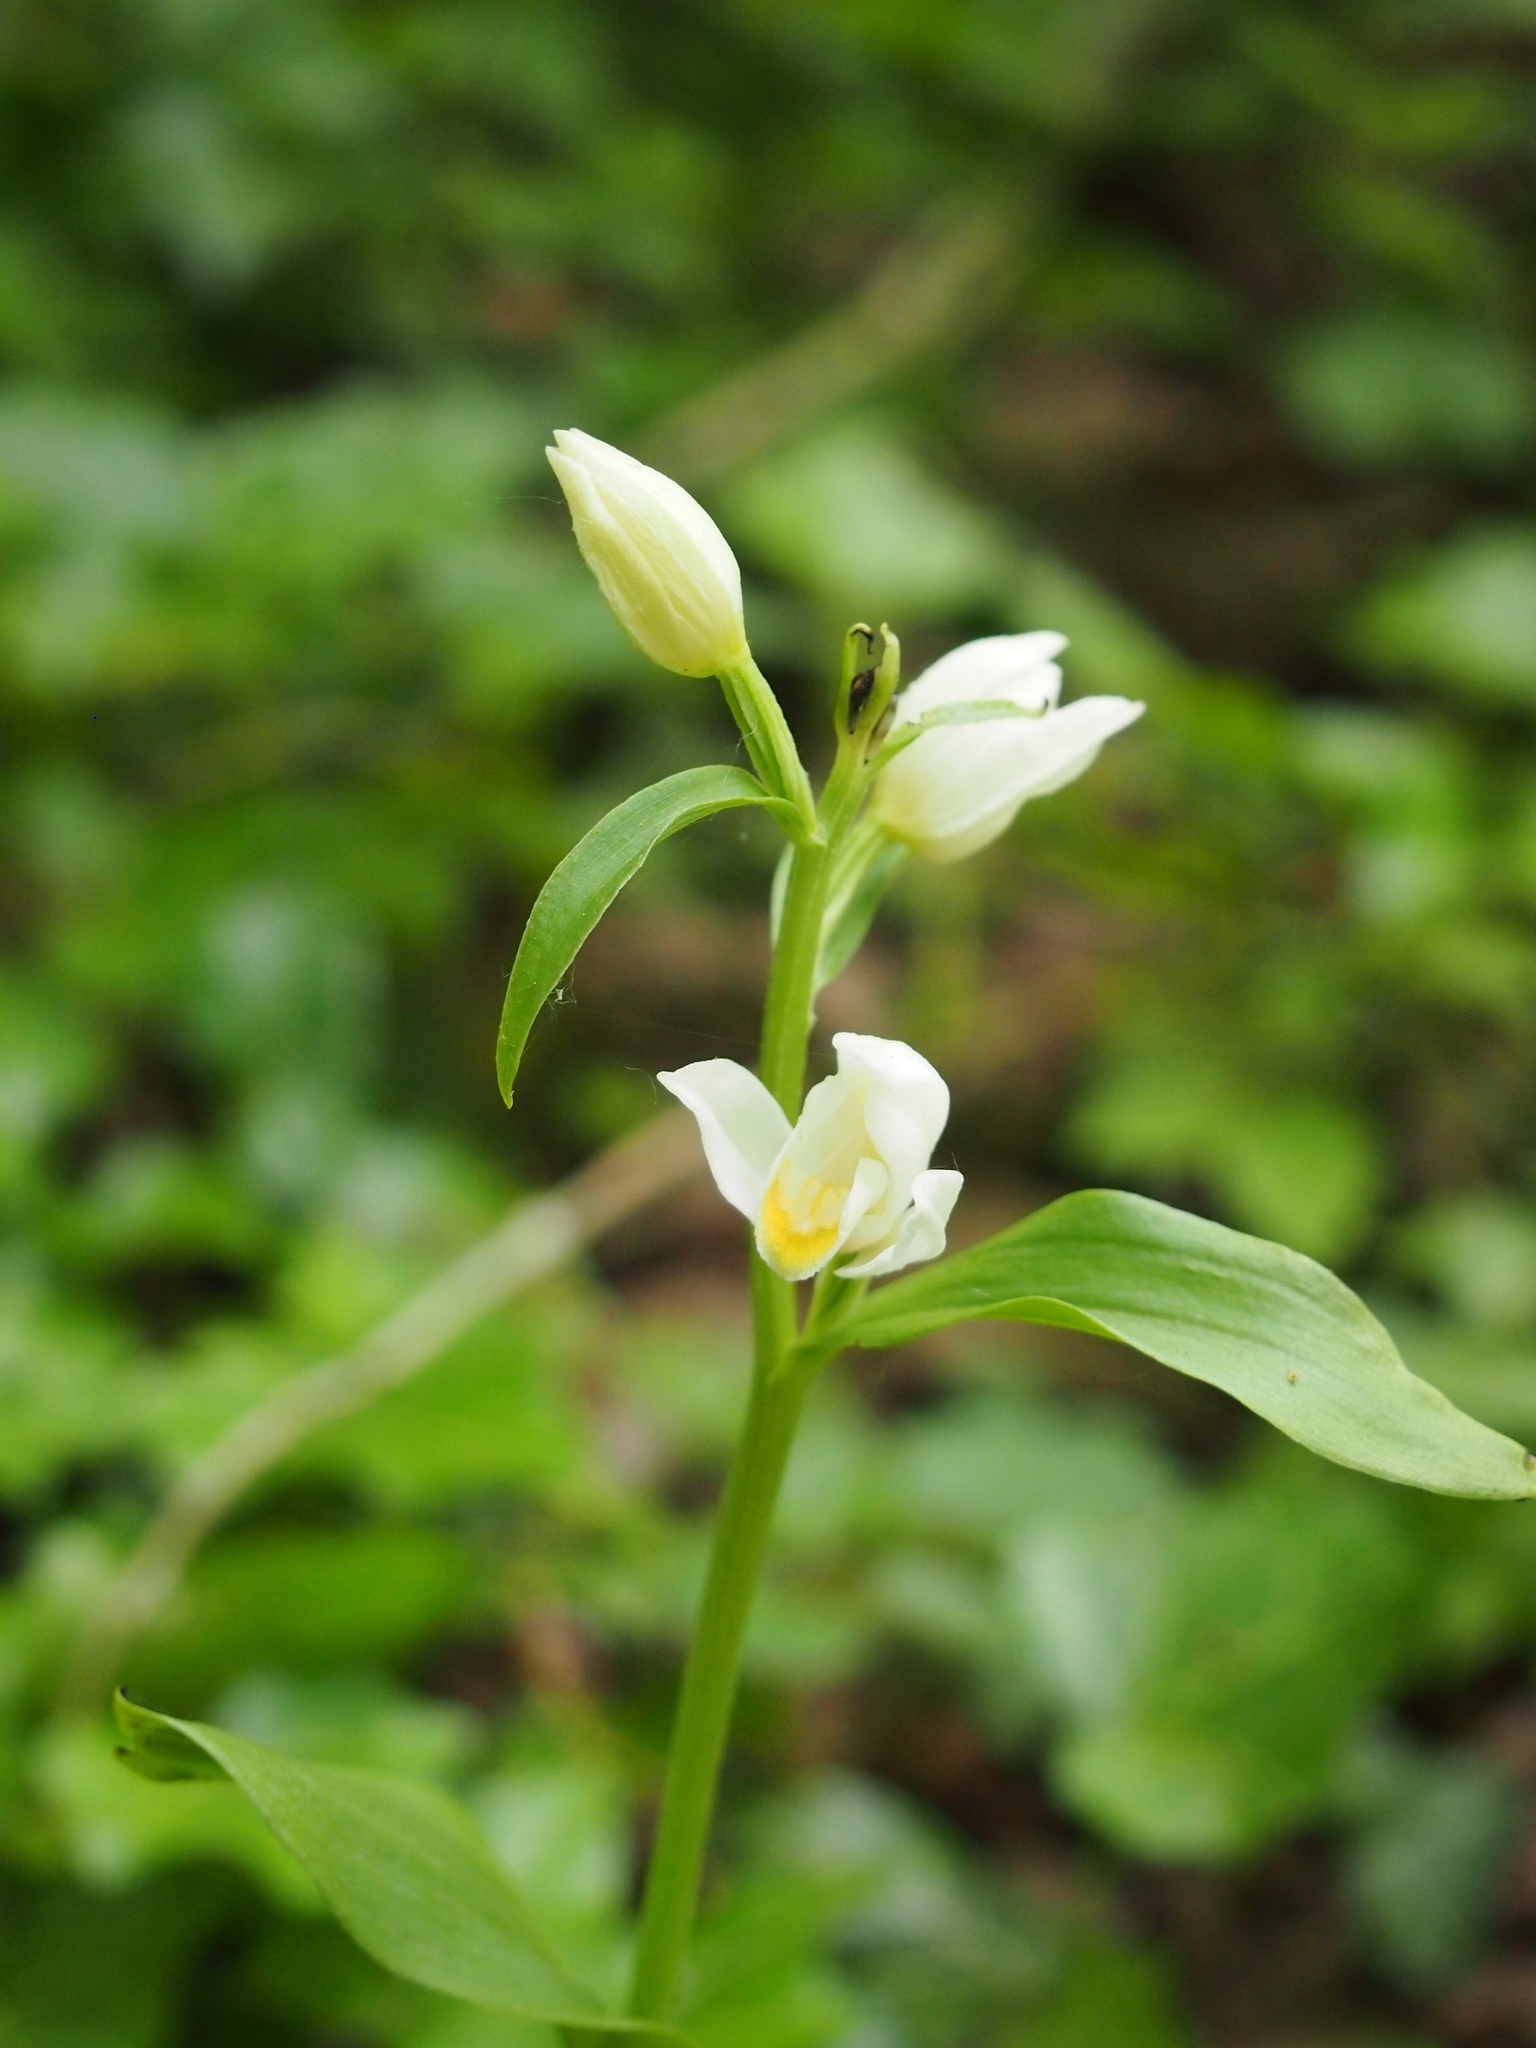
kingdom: Plantae
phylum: Tracheophyta
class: Liliopsida
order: Asparagales
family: Orchidaceae
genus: Cephalanthera
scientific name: Cephalanthera damasonium
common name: White helleborine
